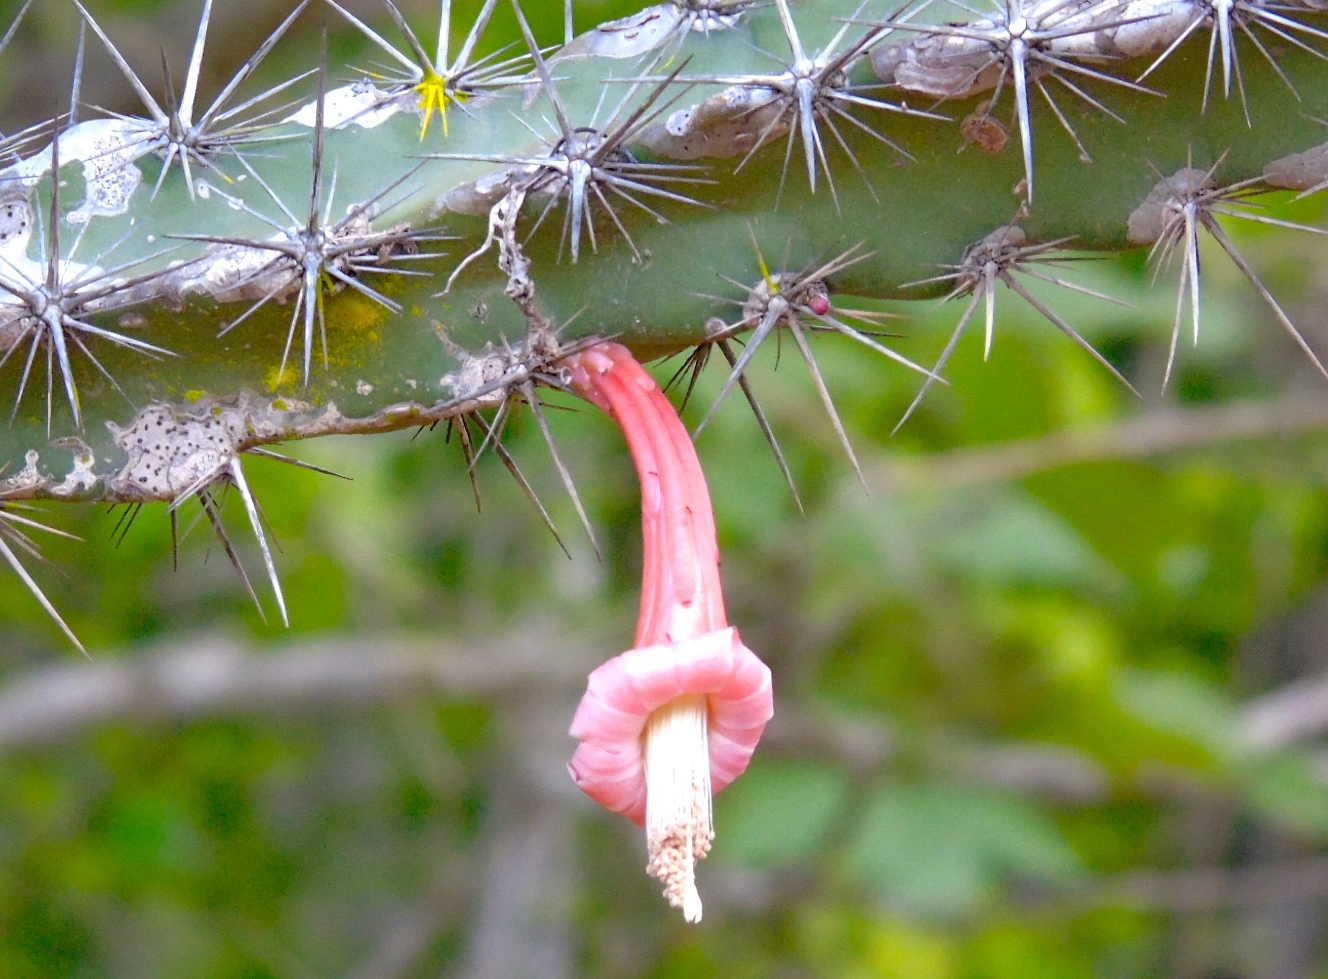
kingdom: Plantae
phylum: Tracheophyta
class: Magnoliopsida
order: Caryophyllales
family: Cactaceae
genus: Stenocereus
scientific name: Stenocereus kerberi
